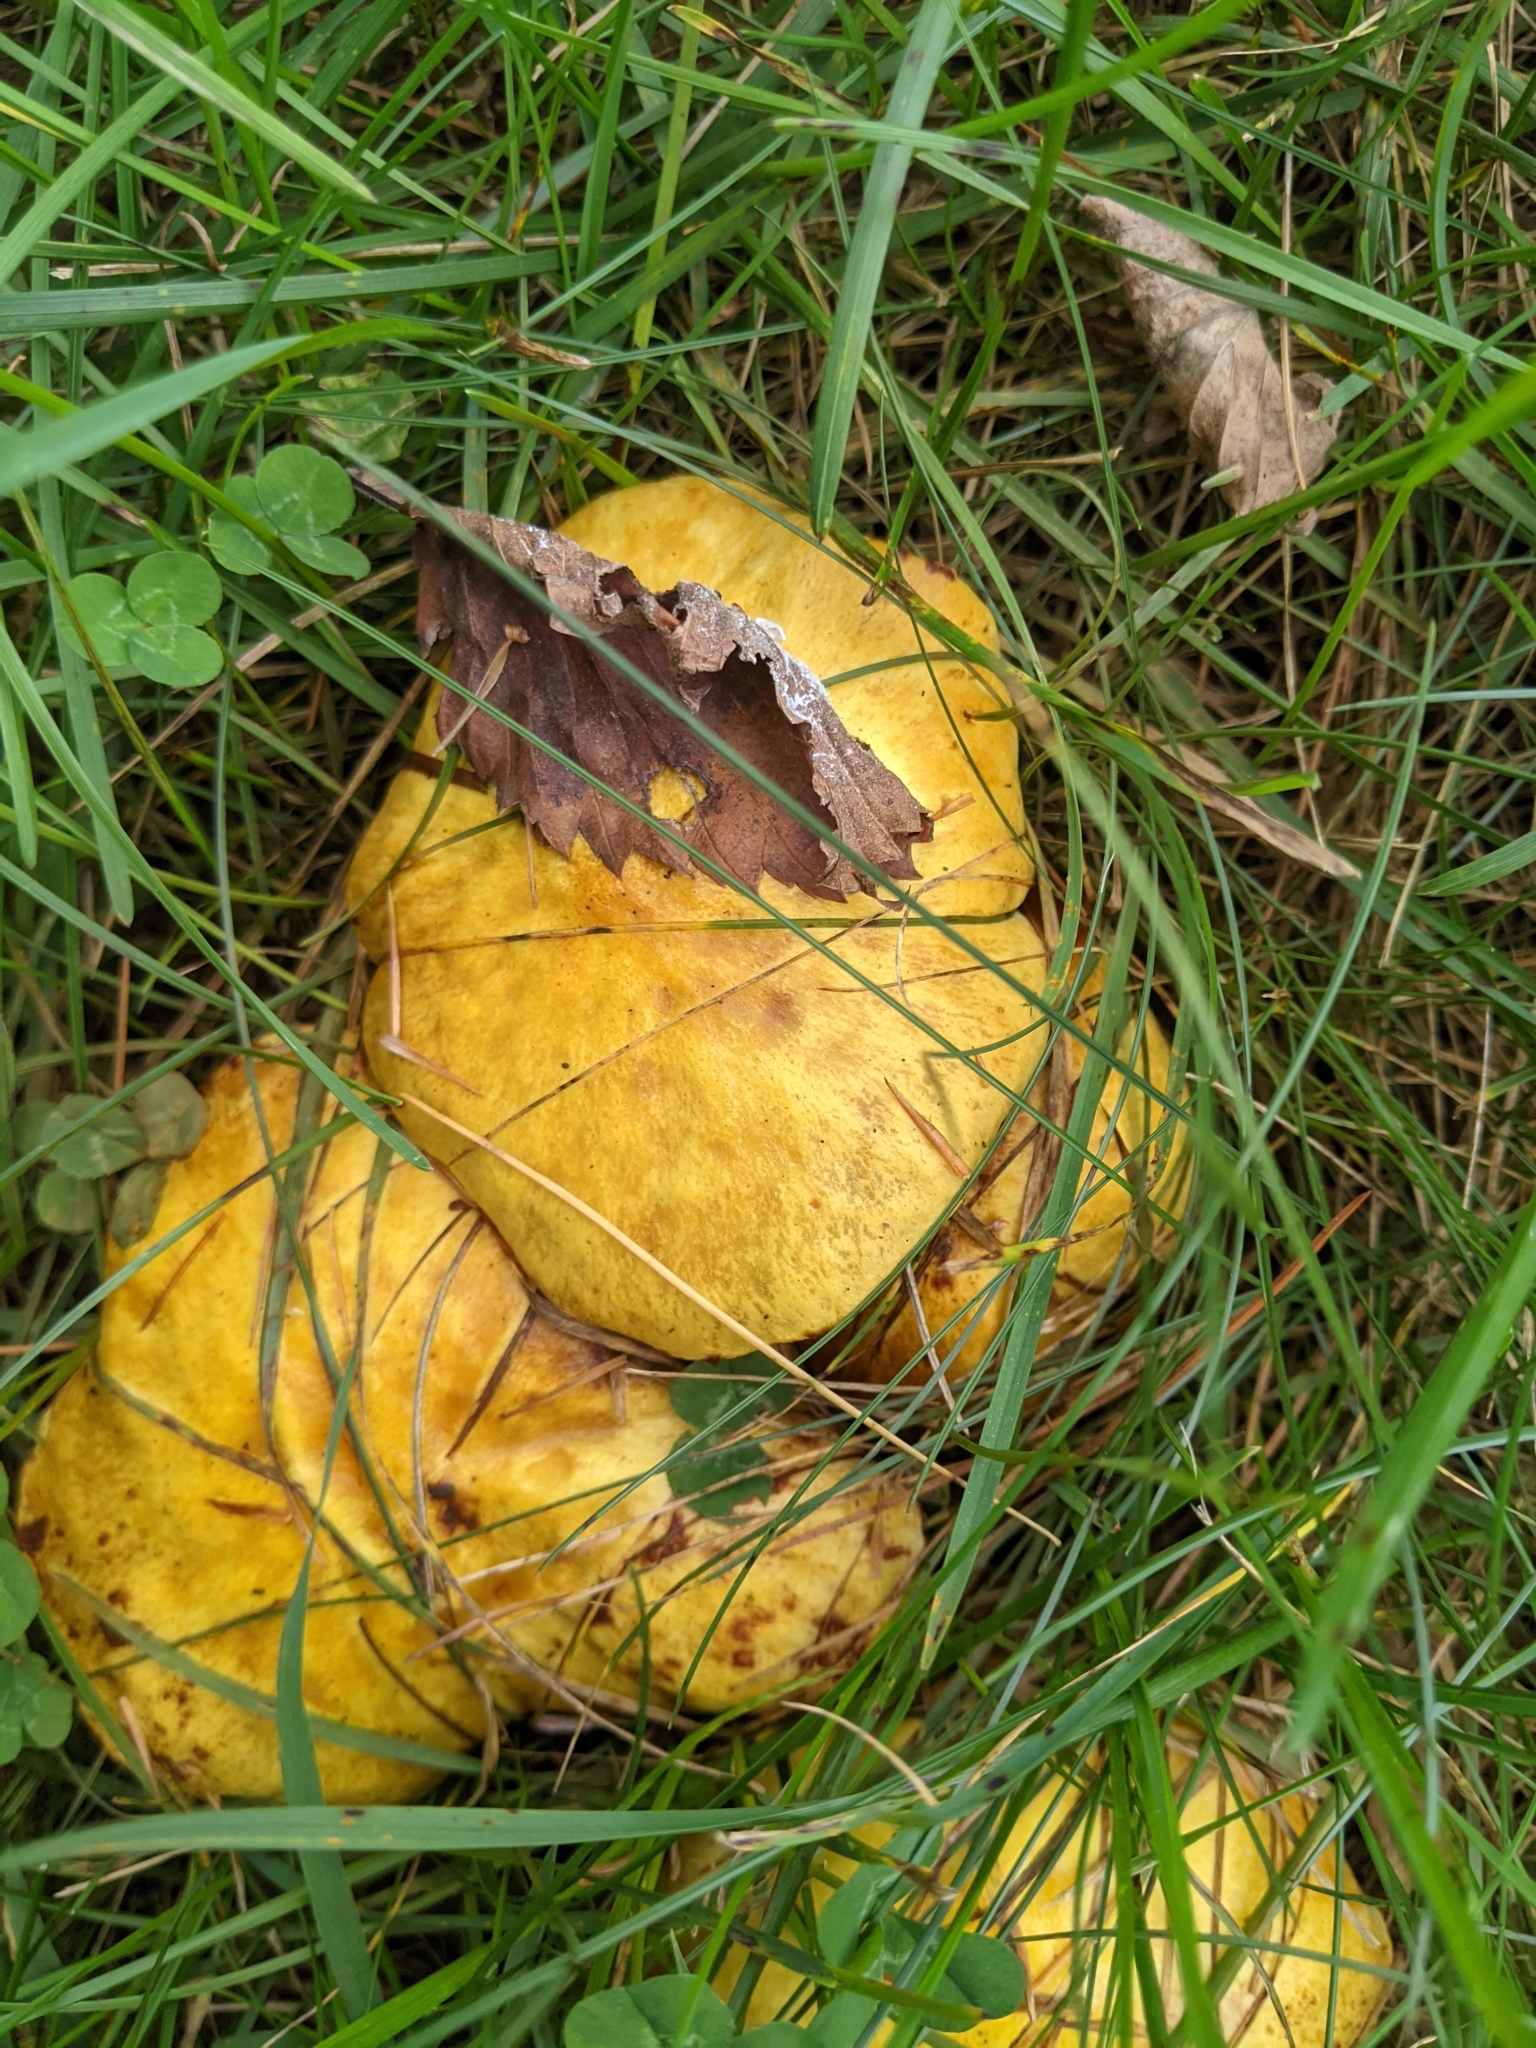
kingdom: Fungi
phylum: Basidiomycota
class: Agaricomycetes
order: Boletales
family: Suillaceae
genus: Suillus
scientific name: Suillus americanus
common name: Chicken fat mushroom
